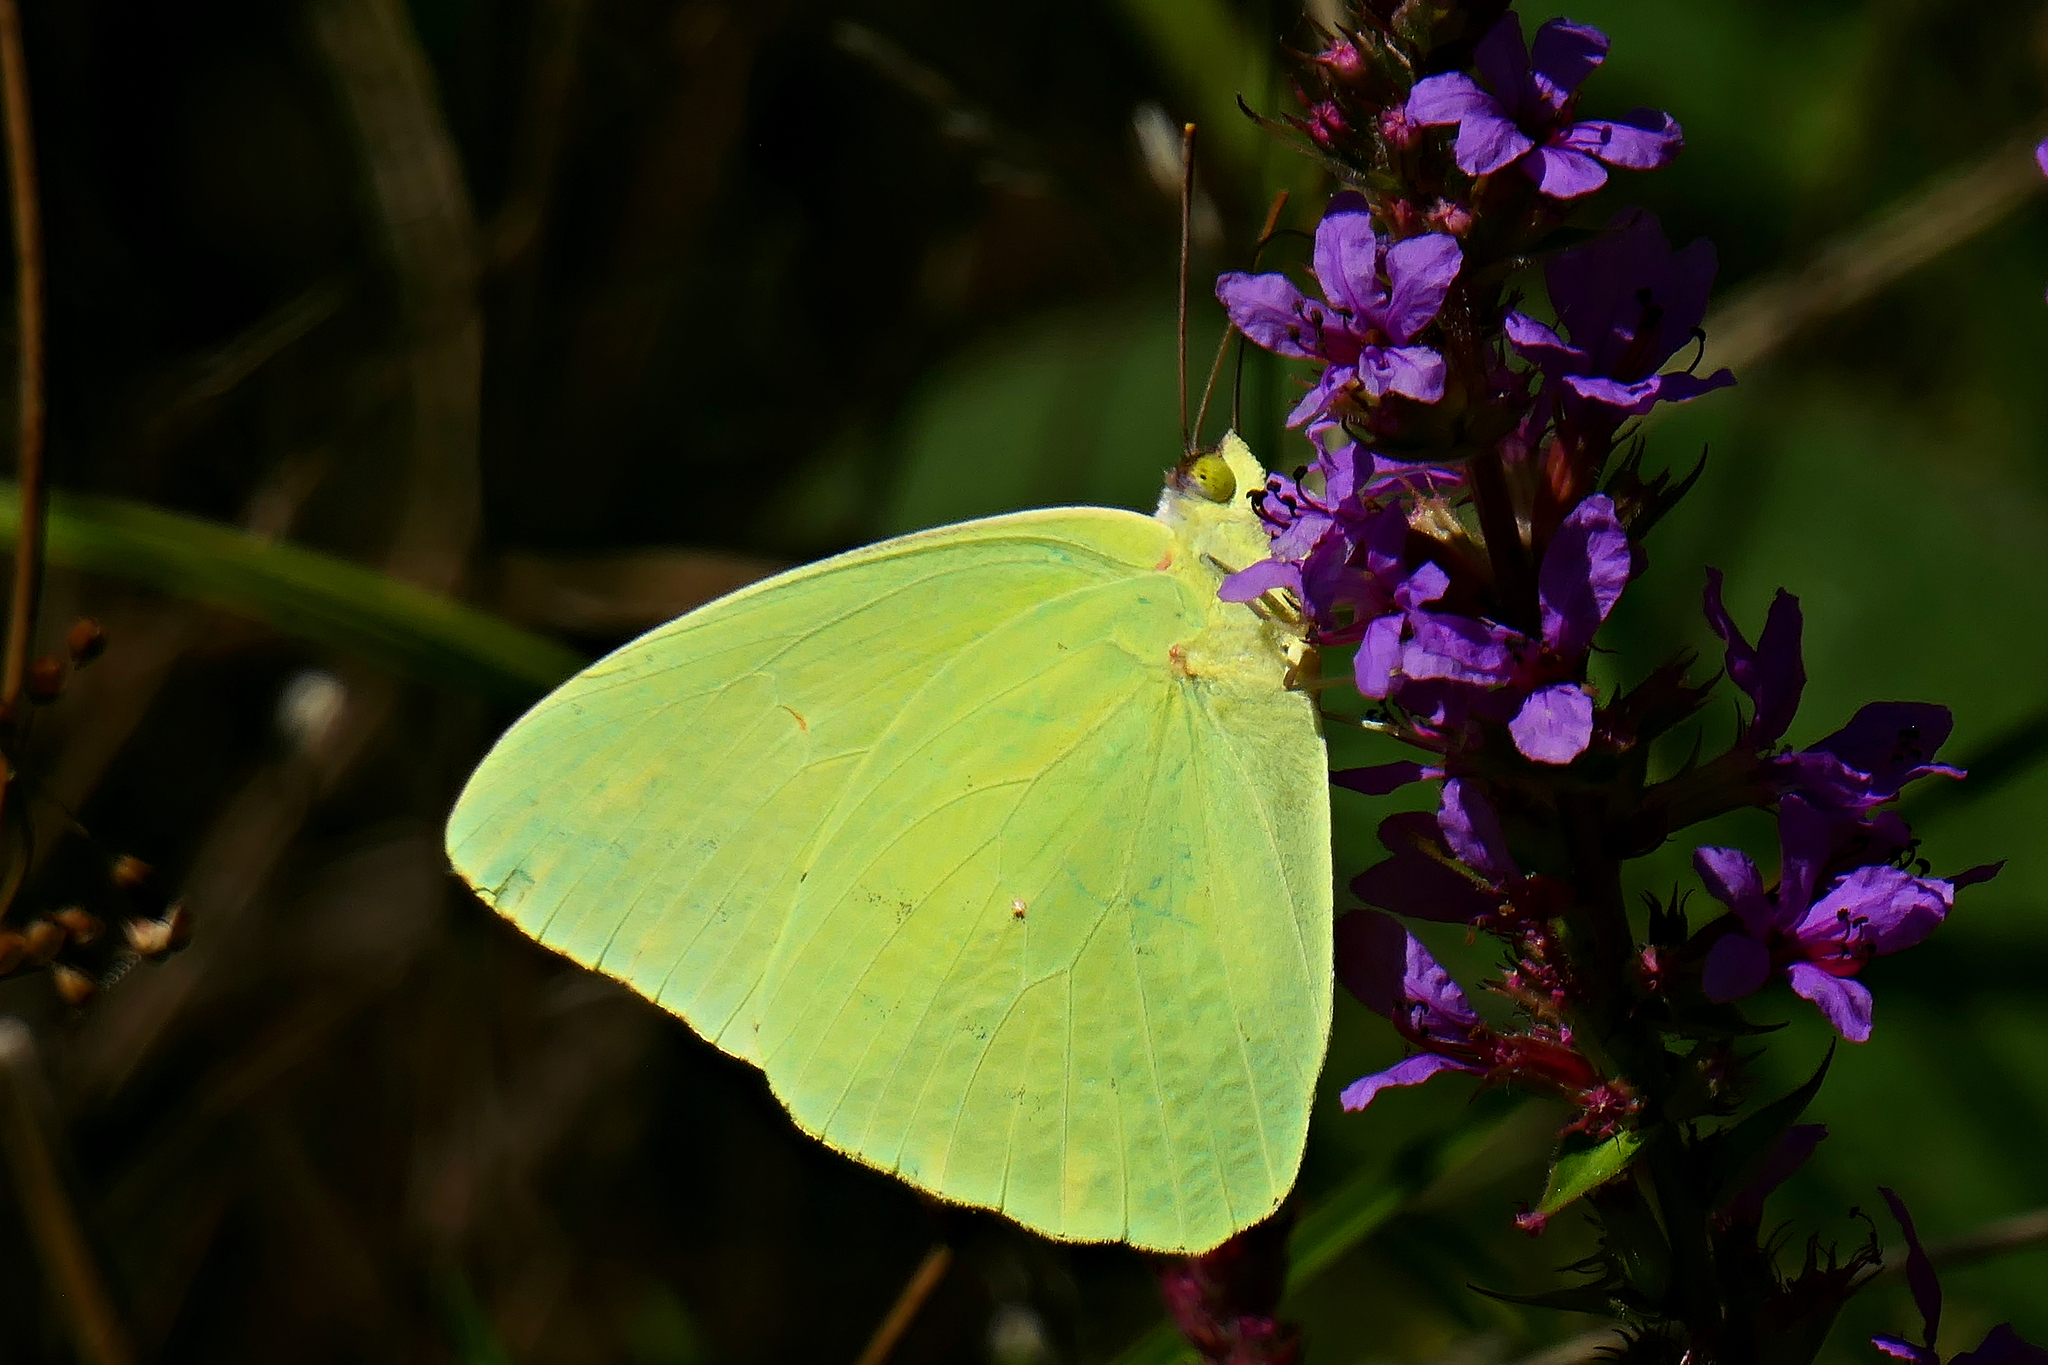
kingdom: Animalia
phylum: Arthropoda
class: Insecta
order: Lepidoptera
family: Pieridae
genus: Phoebis
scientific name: Phoebis sennae
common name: Cloudless sulphur
